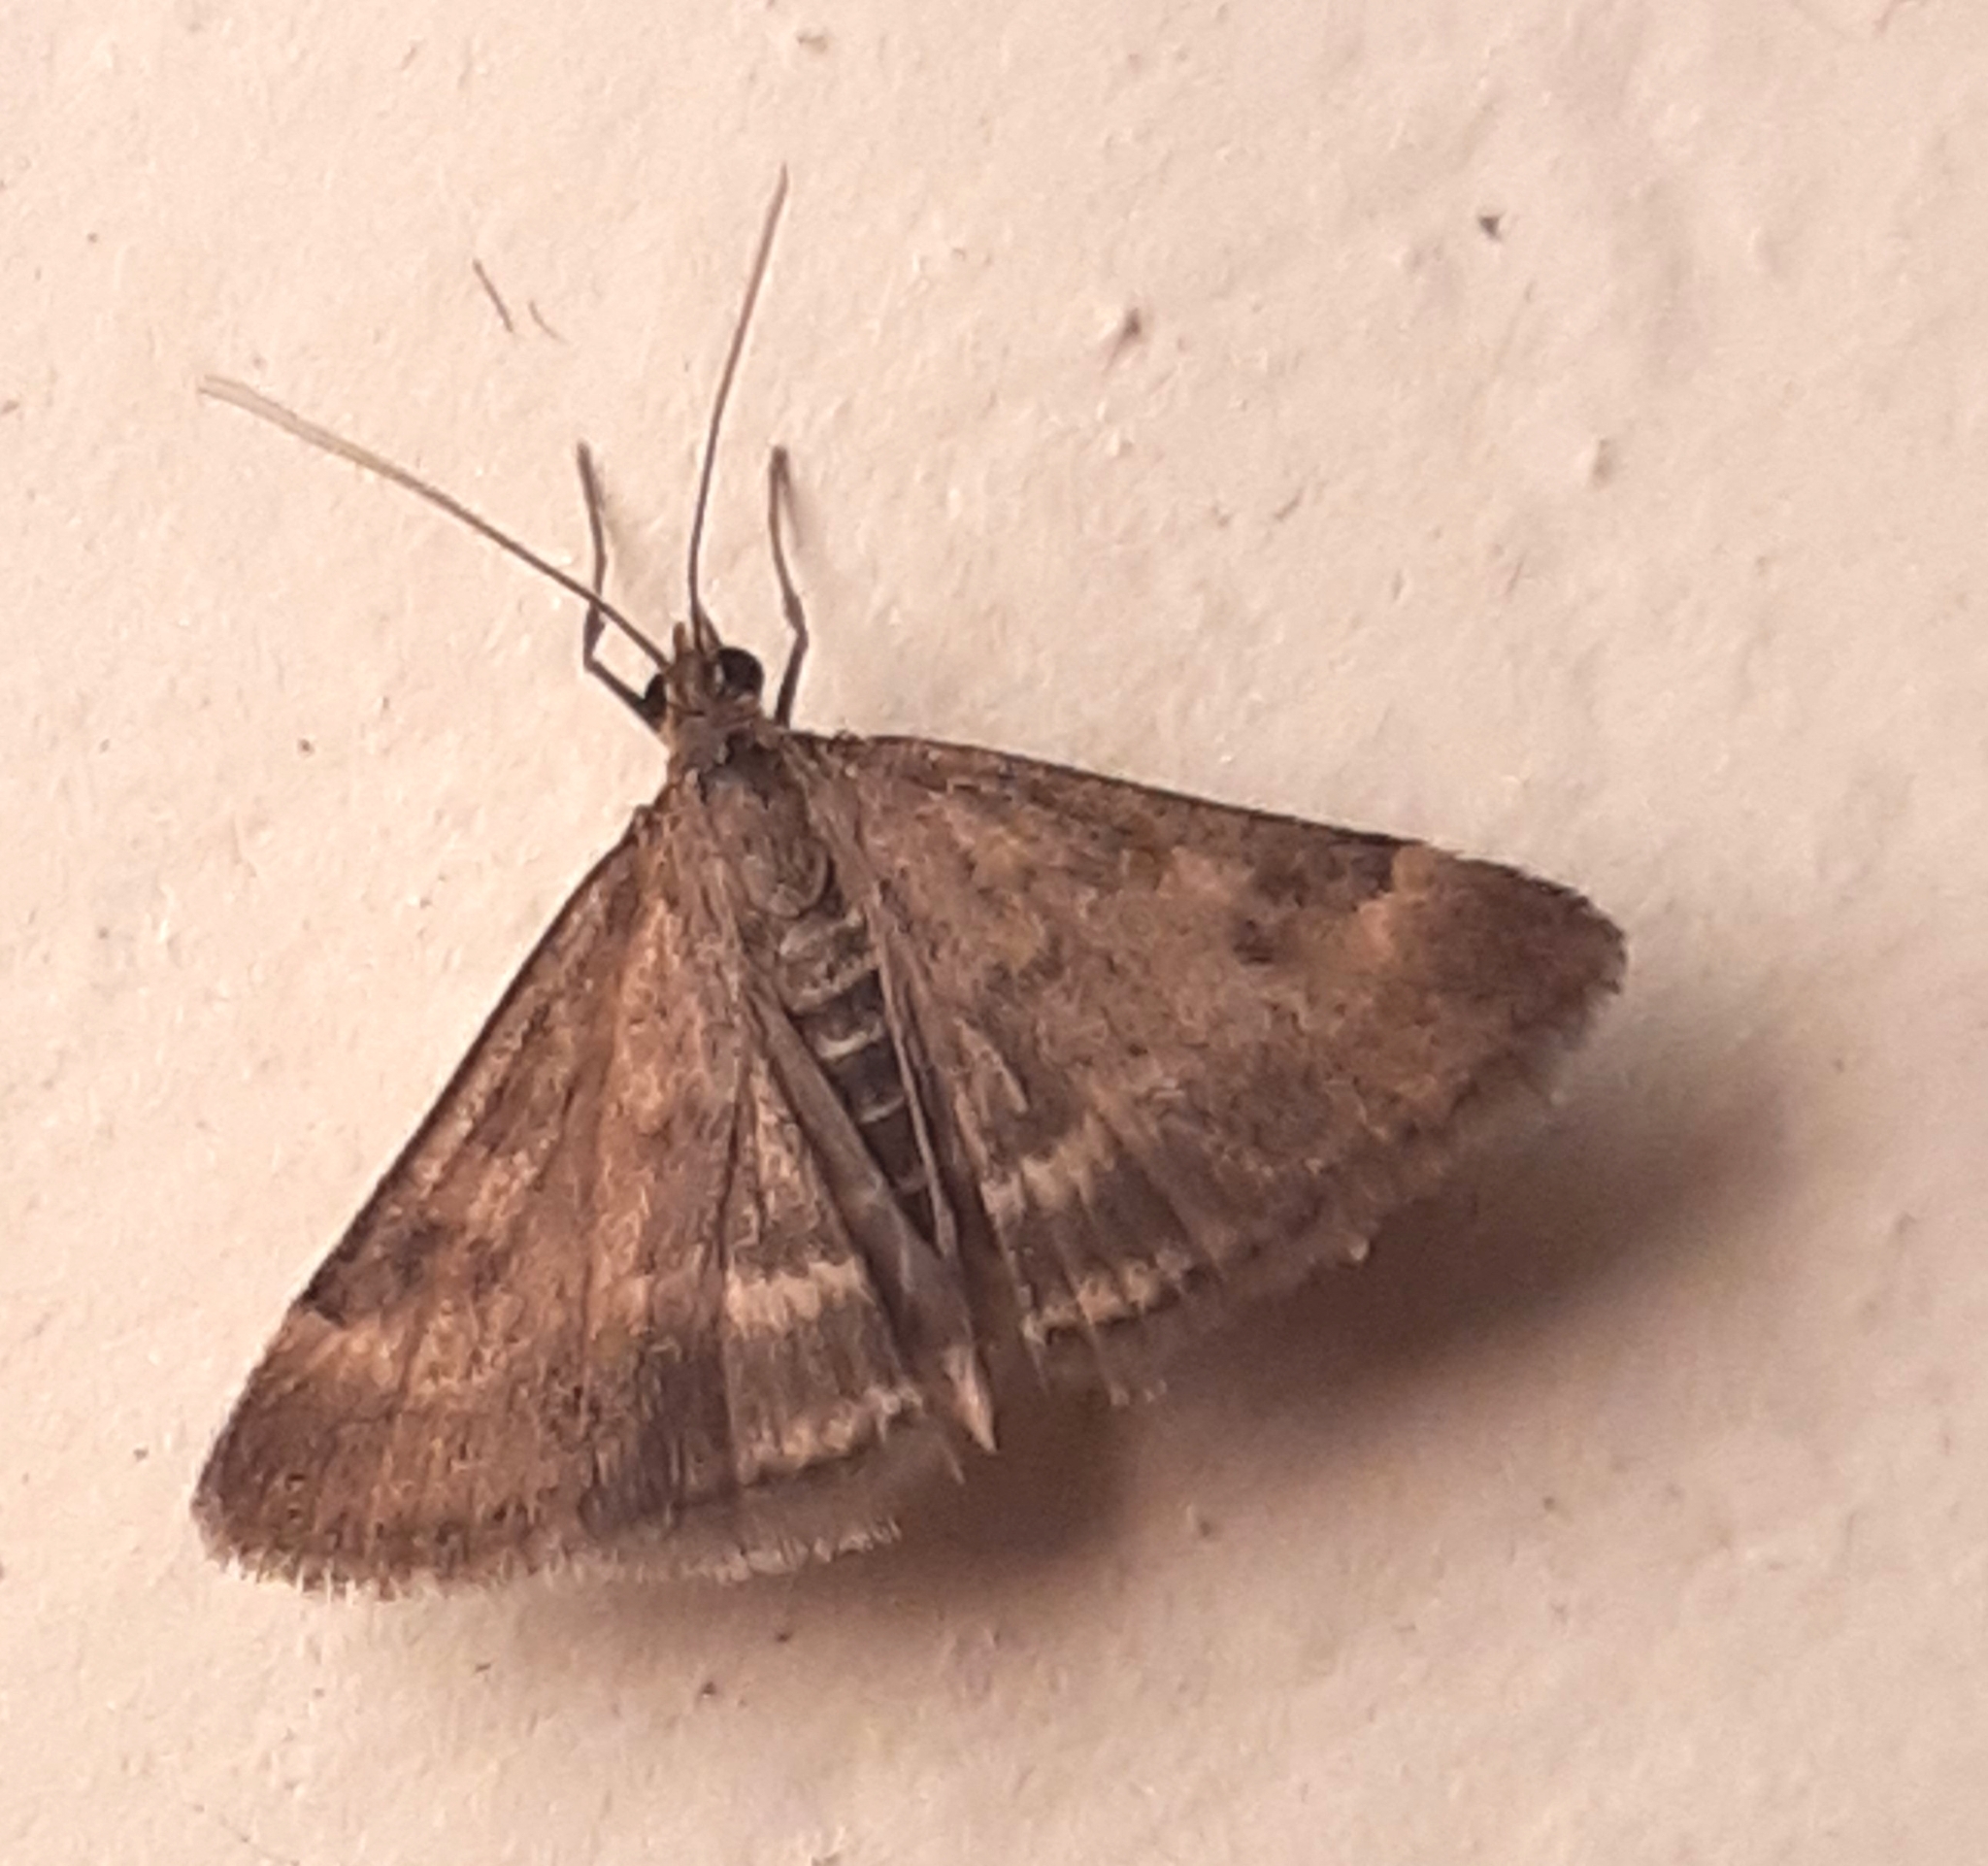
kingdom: Animalia
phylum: Arthropoda
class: Insecta
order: Lepidoptera
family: Crambidae
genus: Pyrausta
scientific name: Pyrausta despicata
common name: Straw-barred pearl
